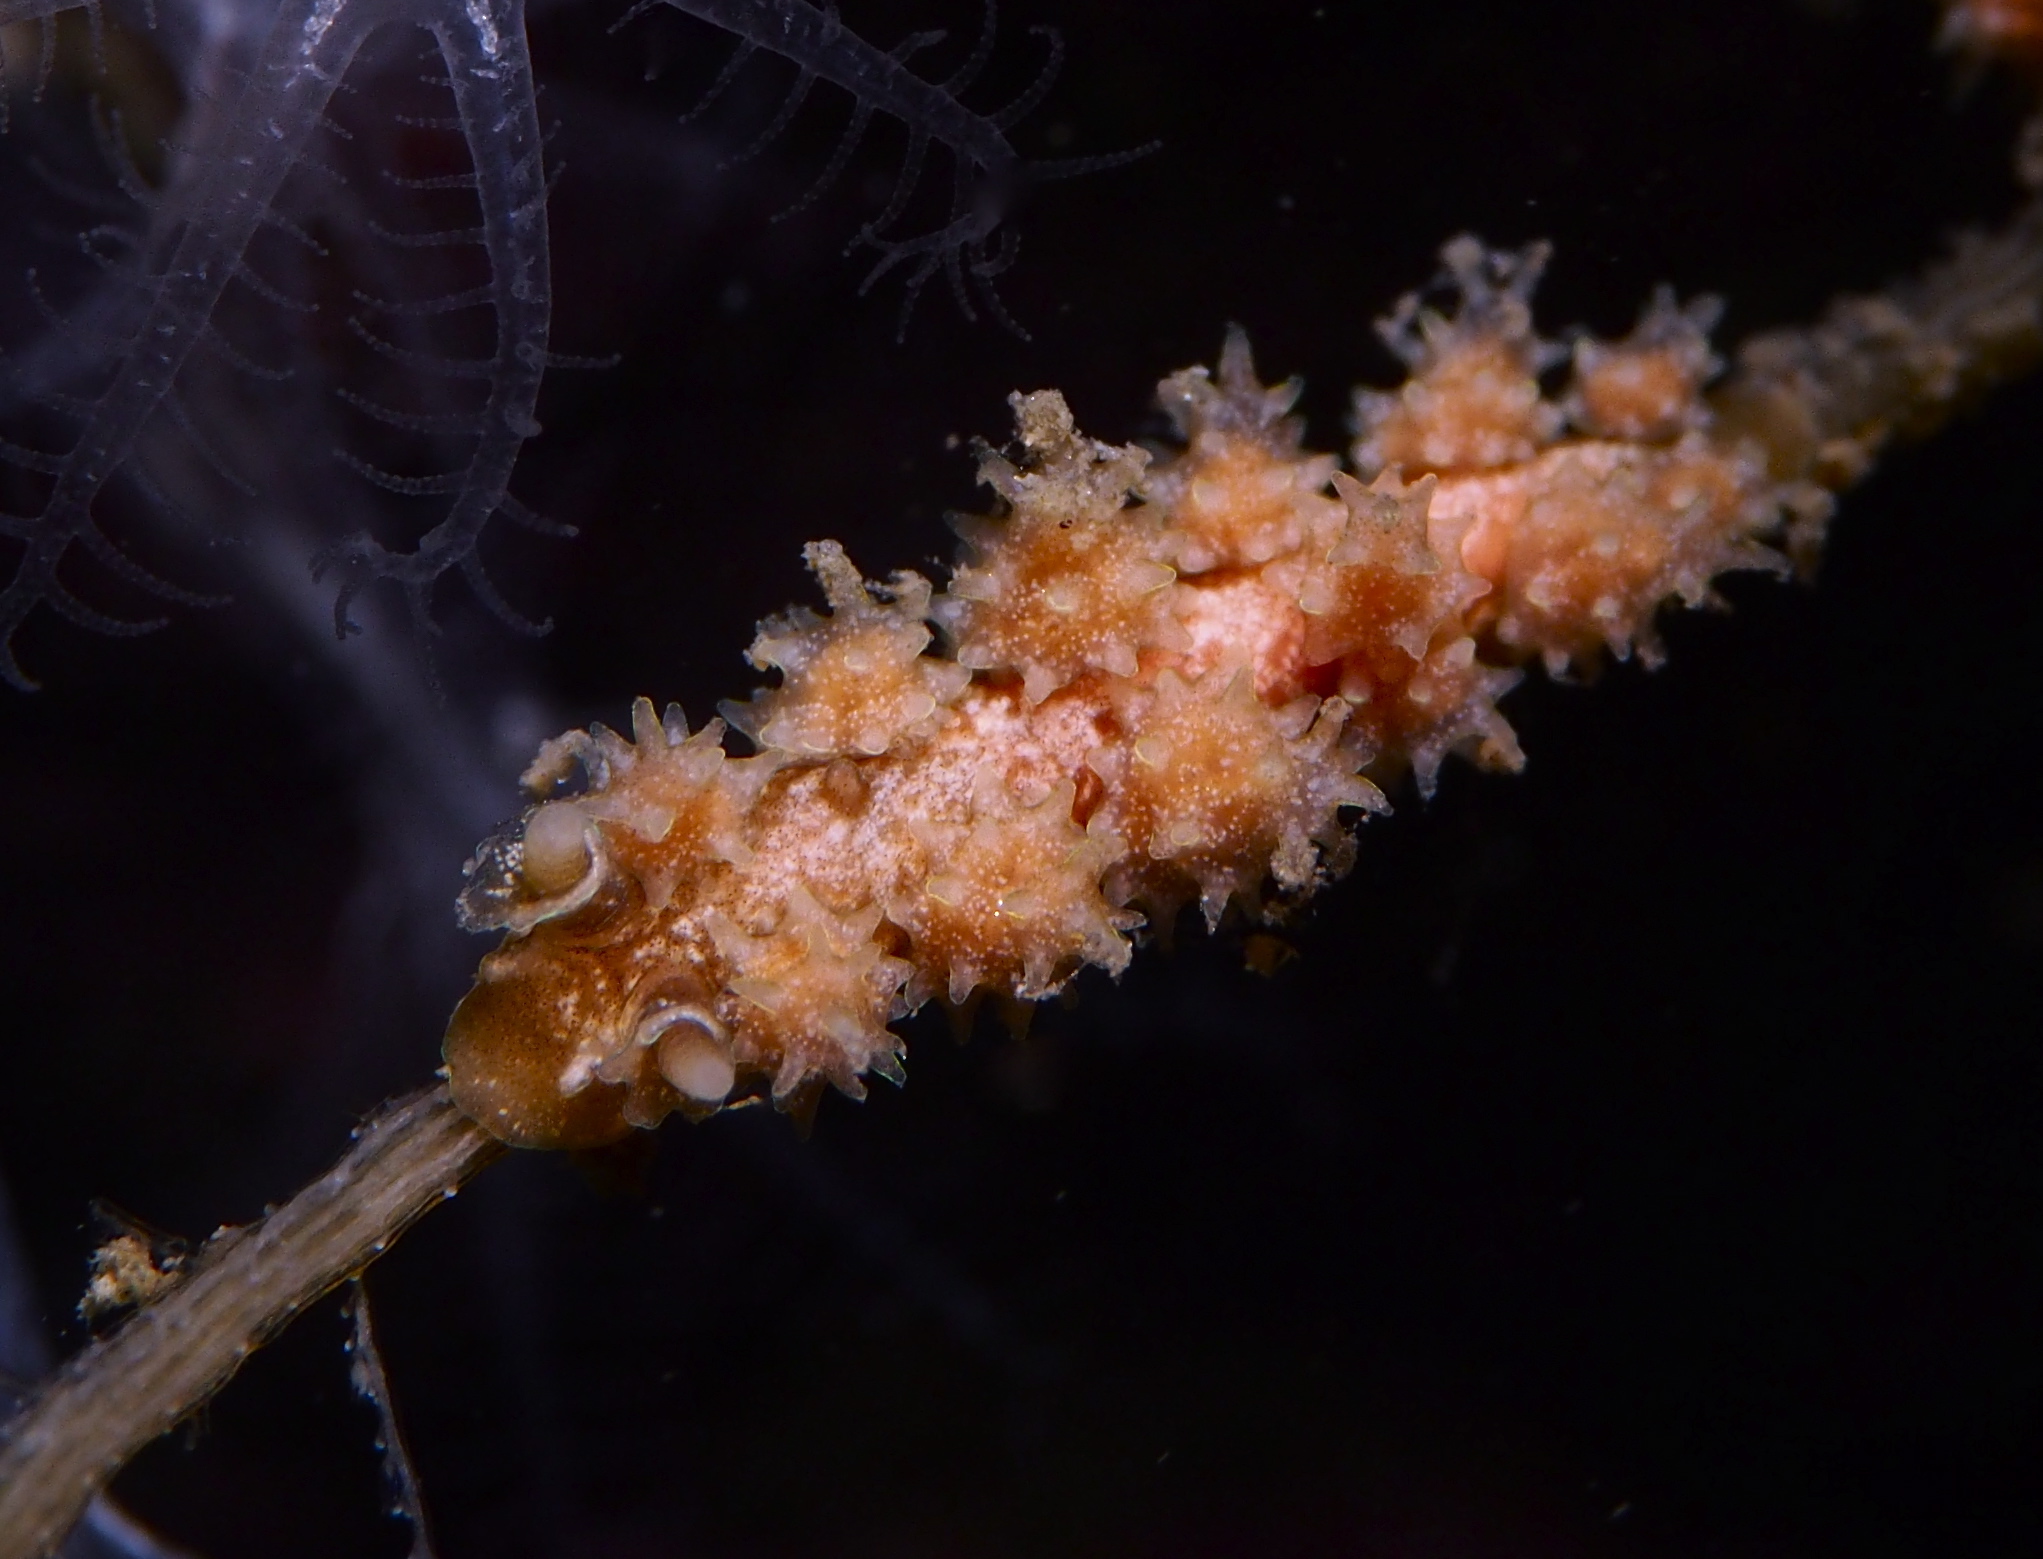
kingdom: Animalia
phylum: Mollusca
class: Gastropoda
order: Nudibranchia
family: Dotidae
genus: Doto
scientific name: Doto hystrix
